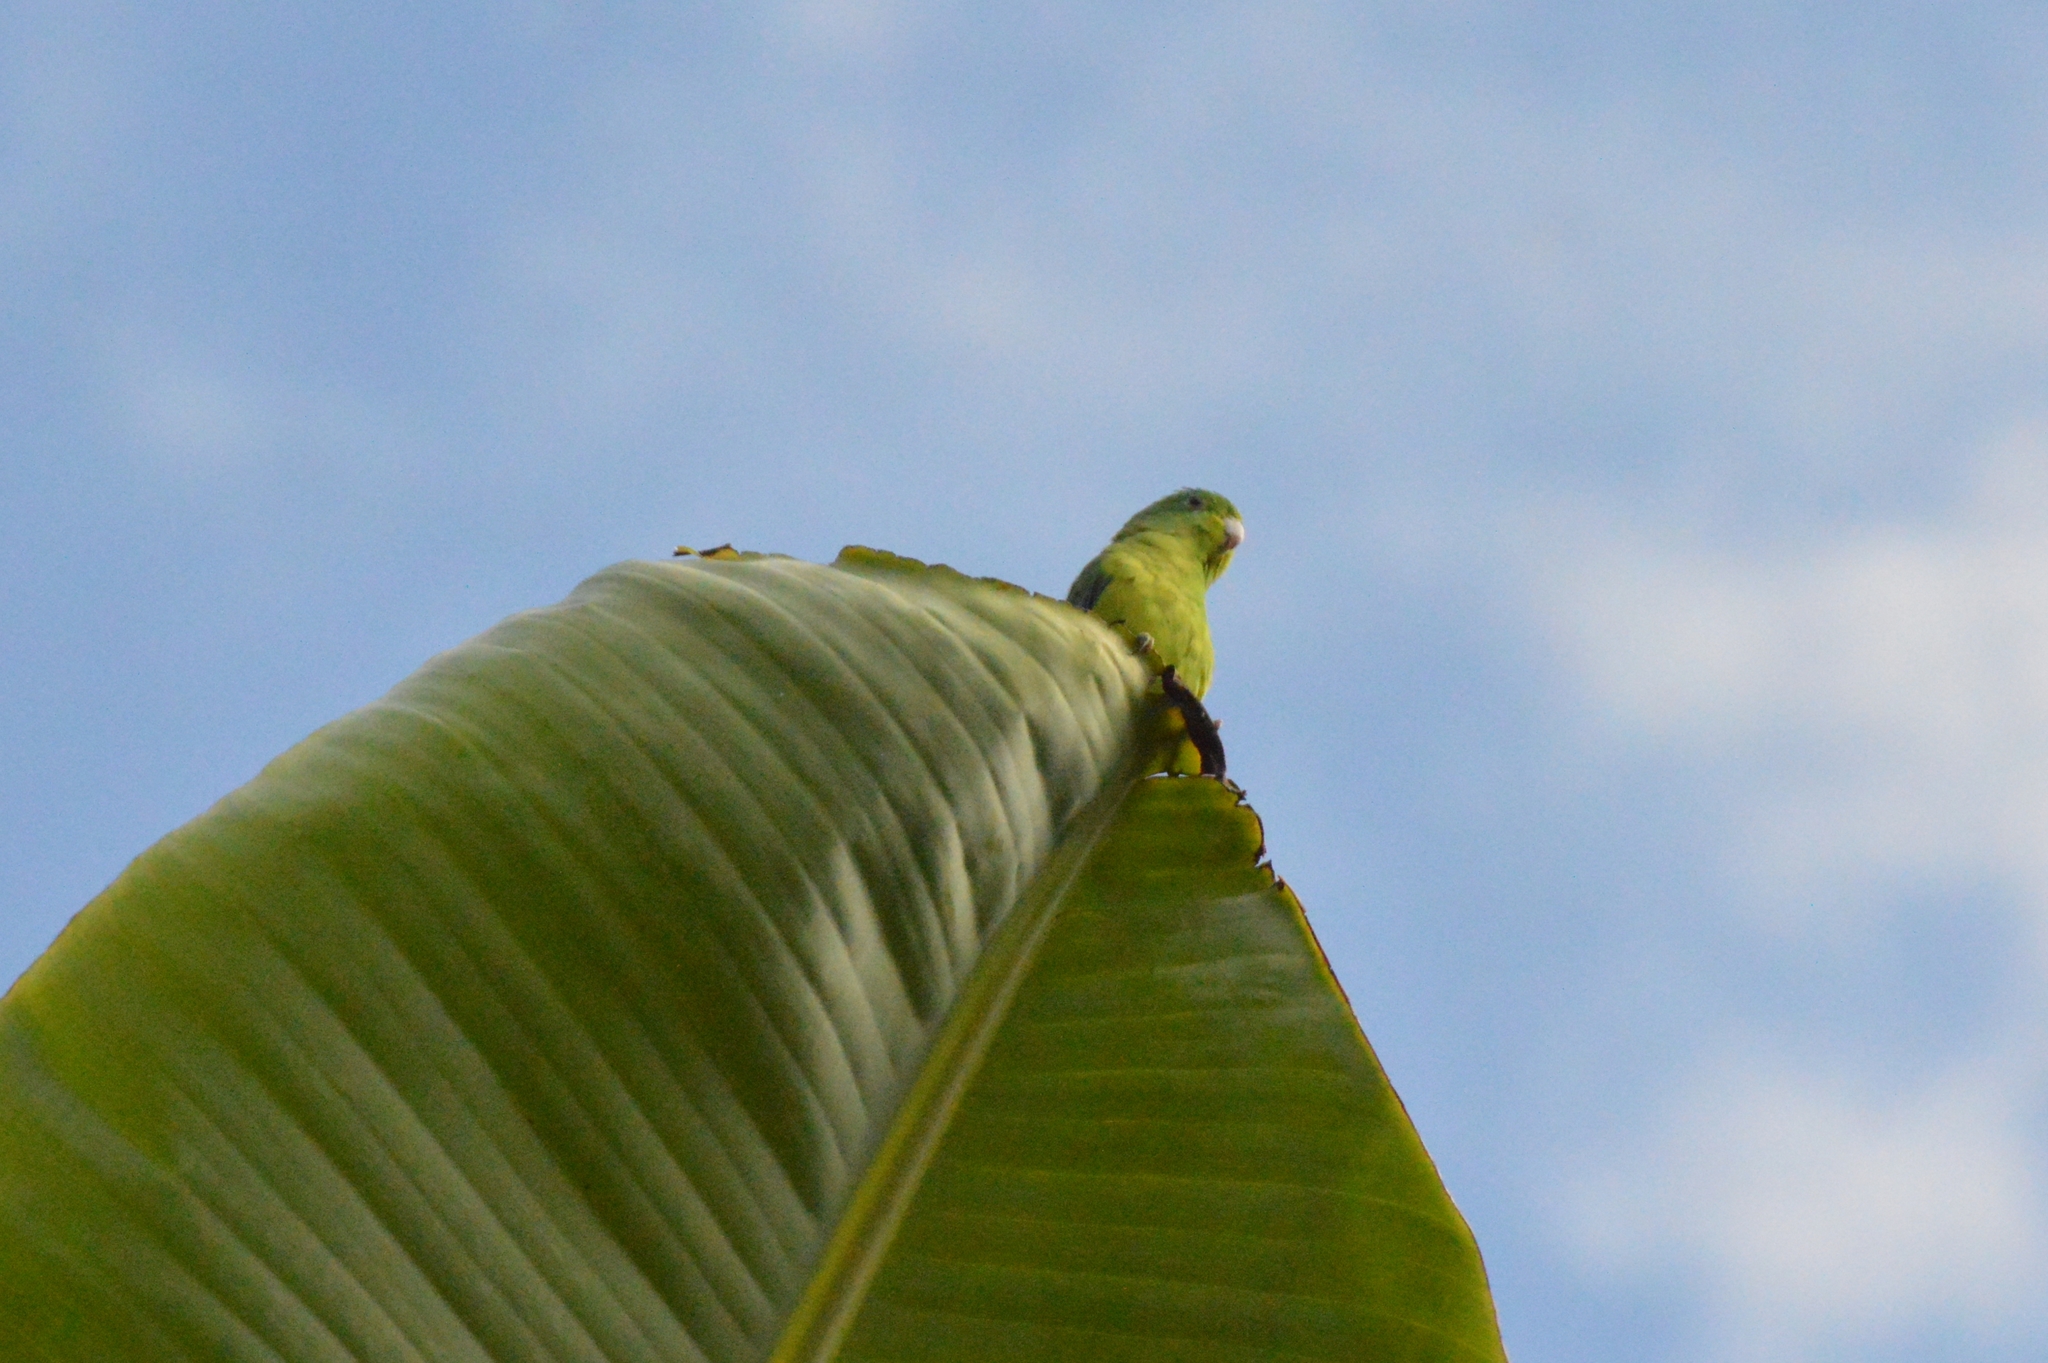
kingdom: Animalia
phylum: Chordata
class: Aves
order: Psittaciformes
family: Psittacidae
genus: Forpus
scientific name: Forpus xanthopterygius
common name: Blue-winged parrotlet
